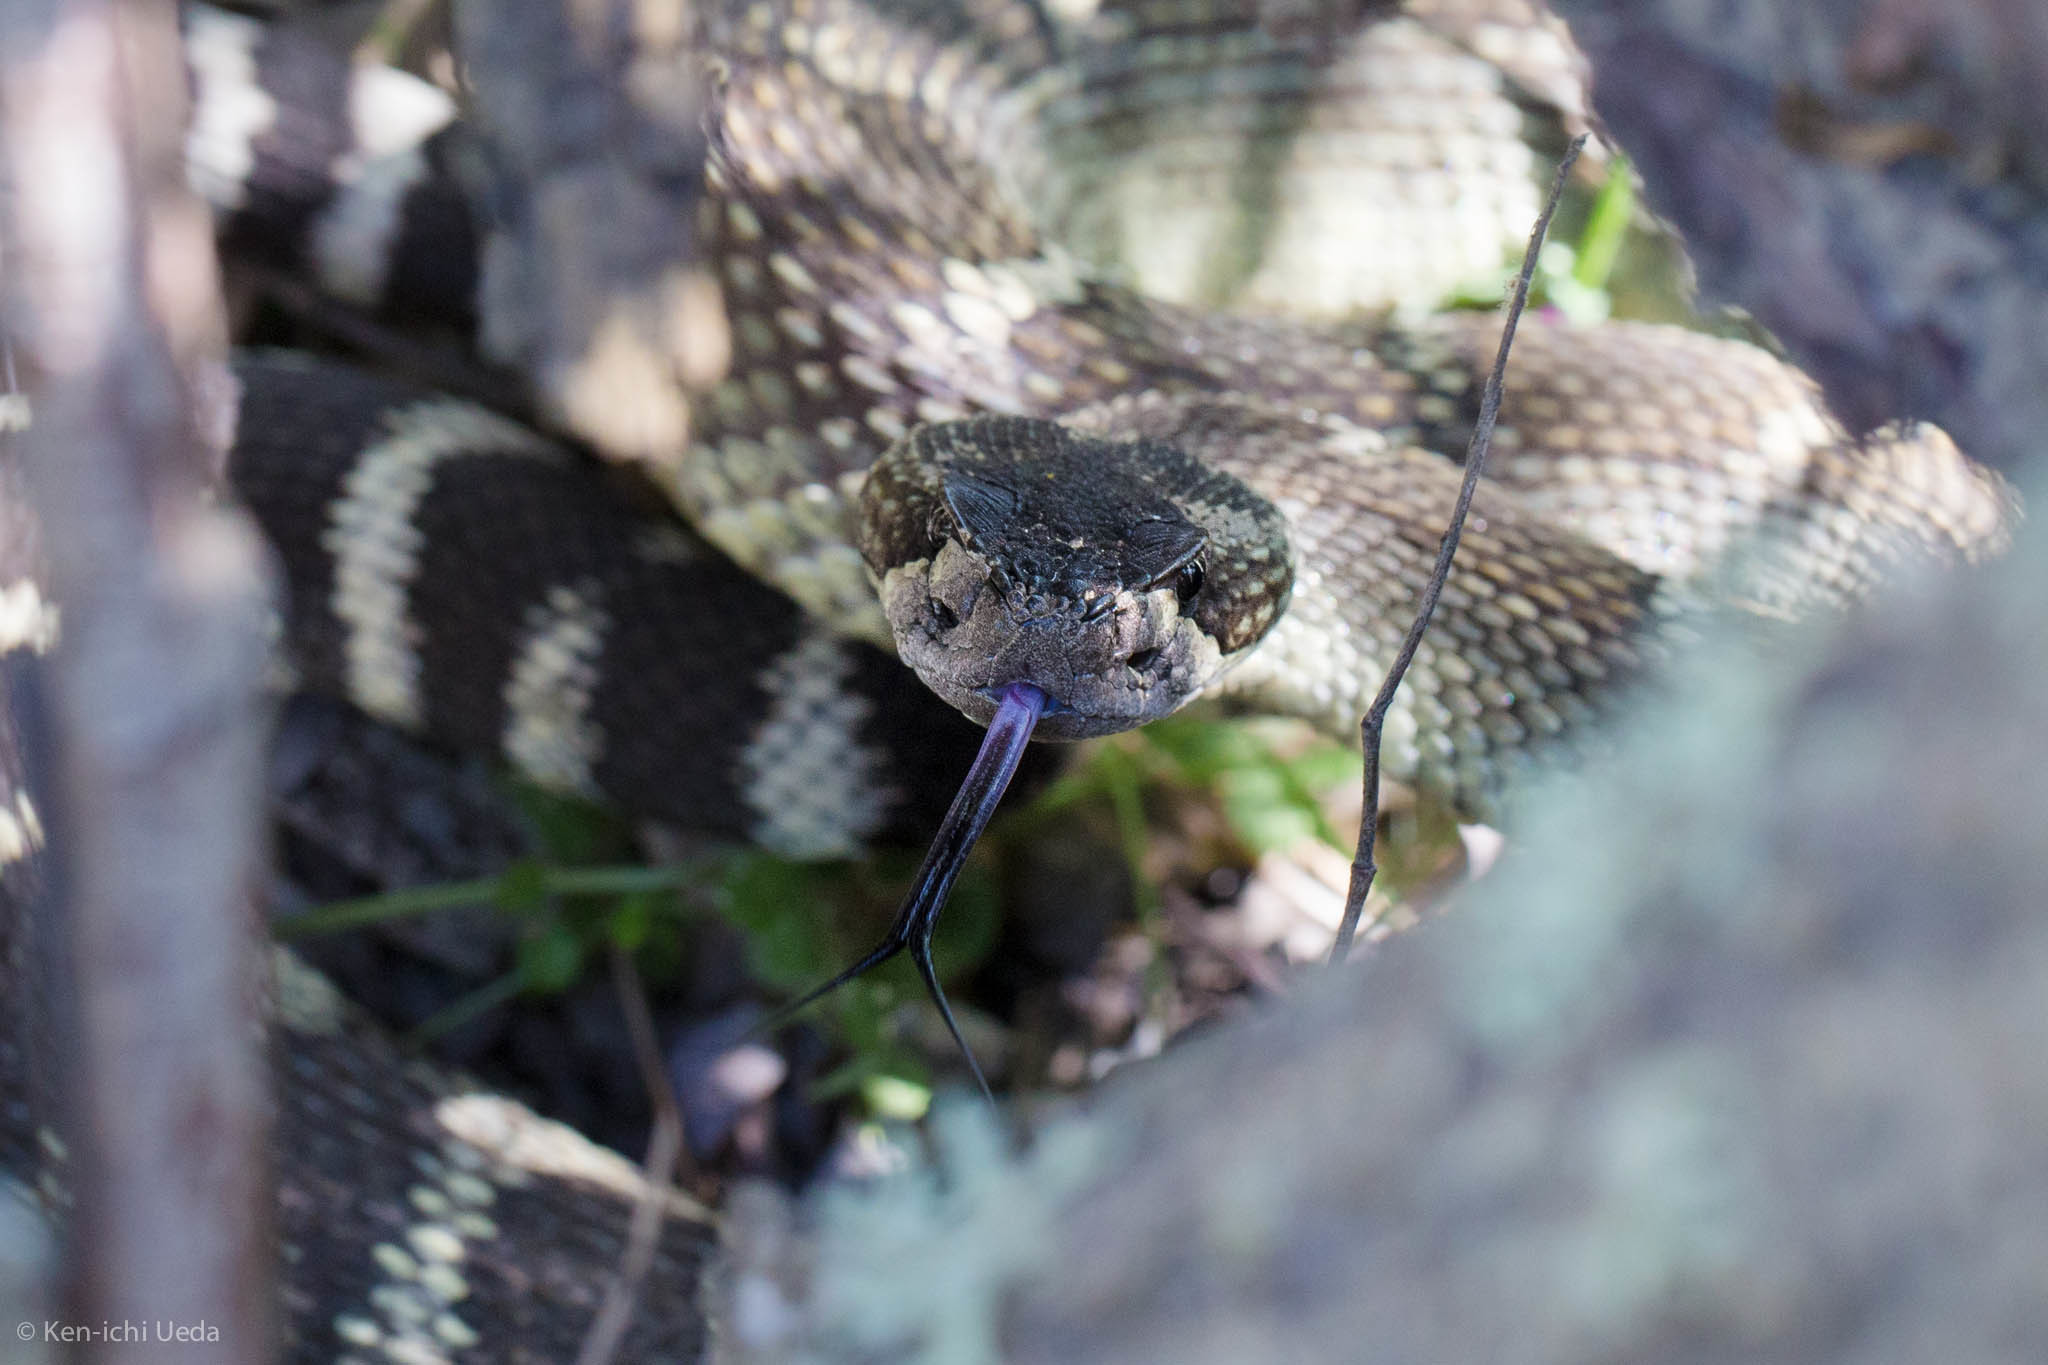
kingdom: Animalia
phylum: Chordata
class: Squamata
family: Viperidae
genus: Crotalus
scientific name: Crotalus oreganus
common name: Abyssus
